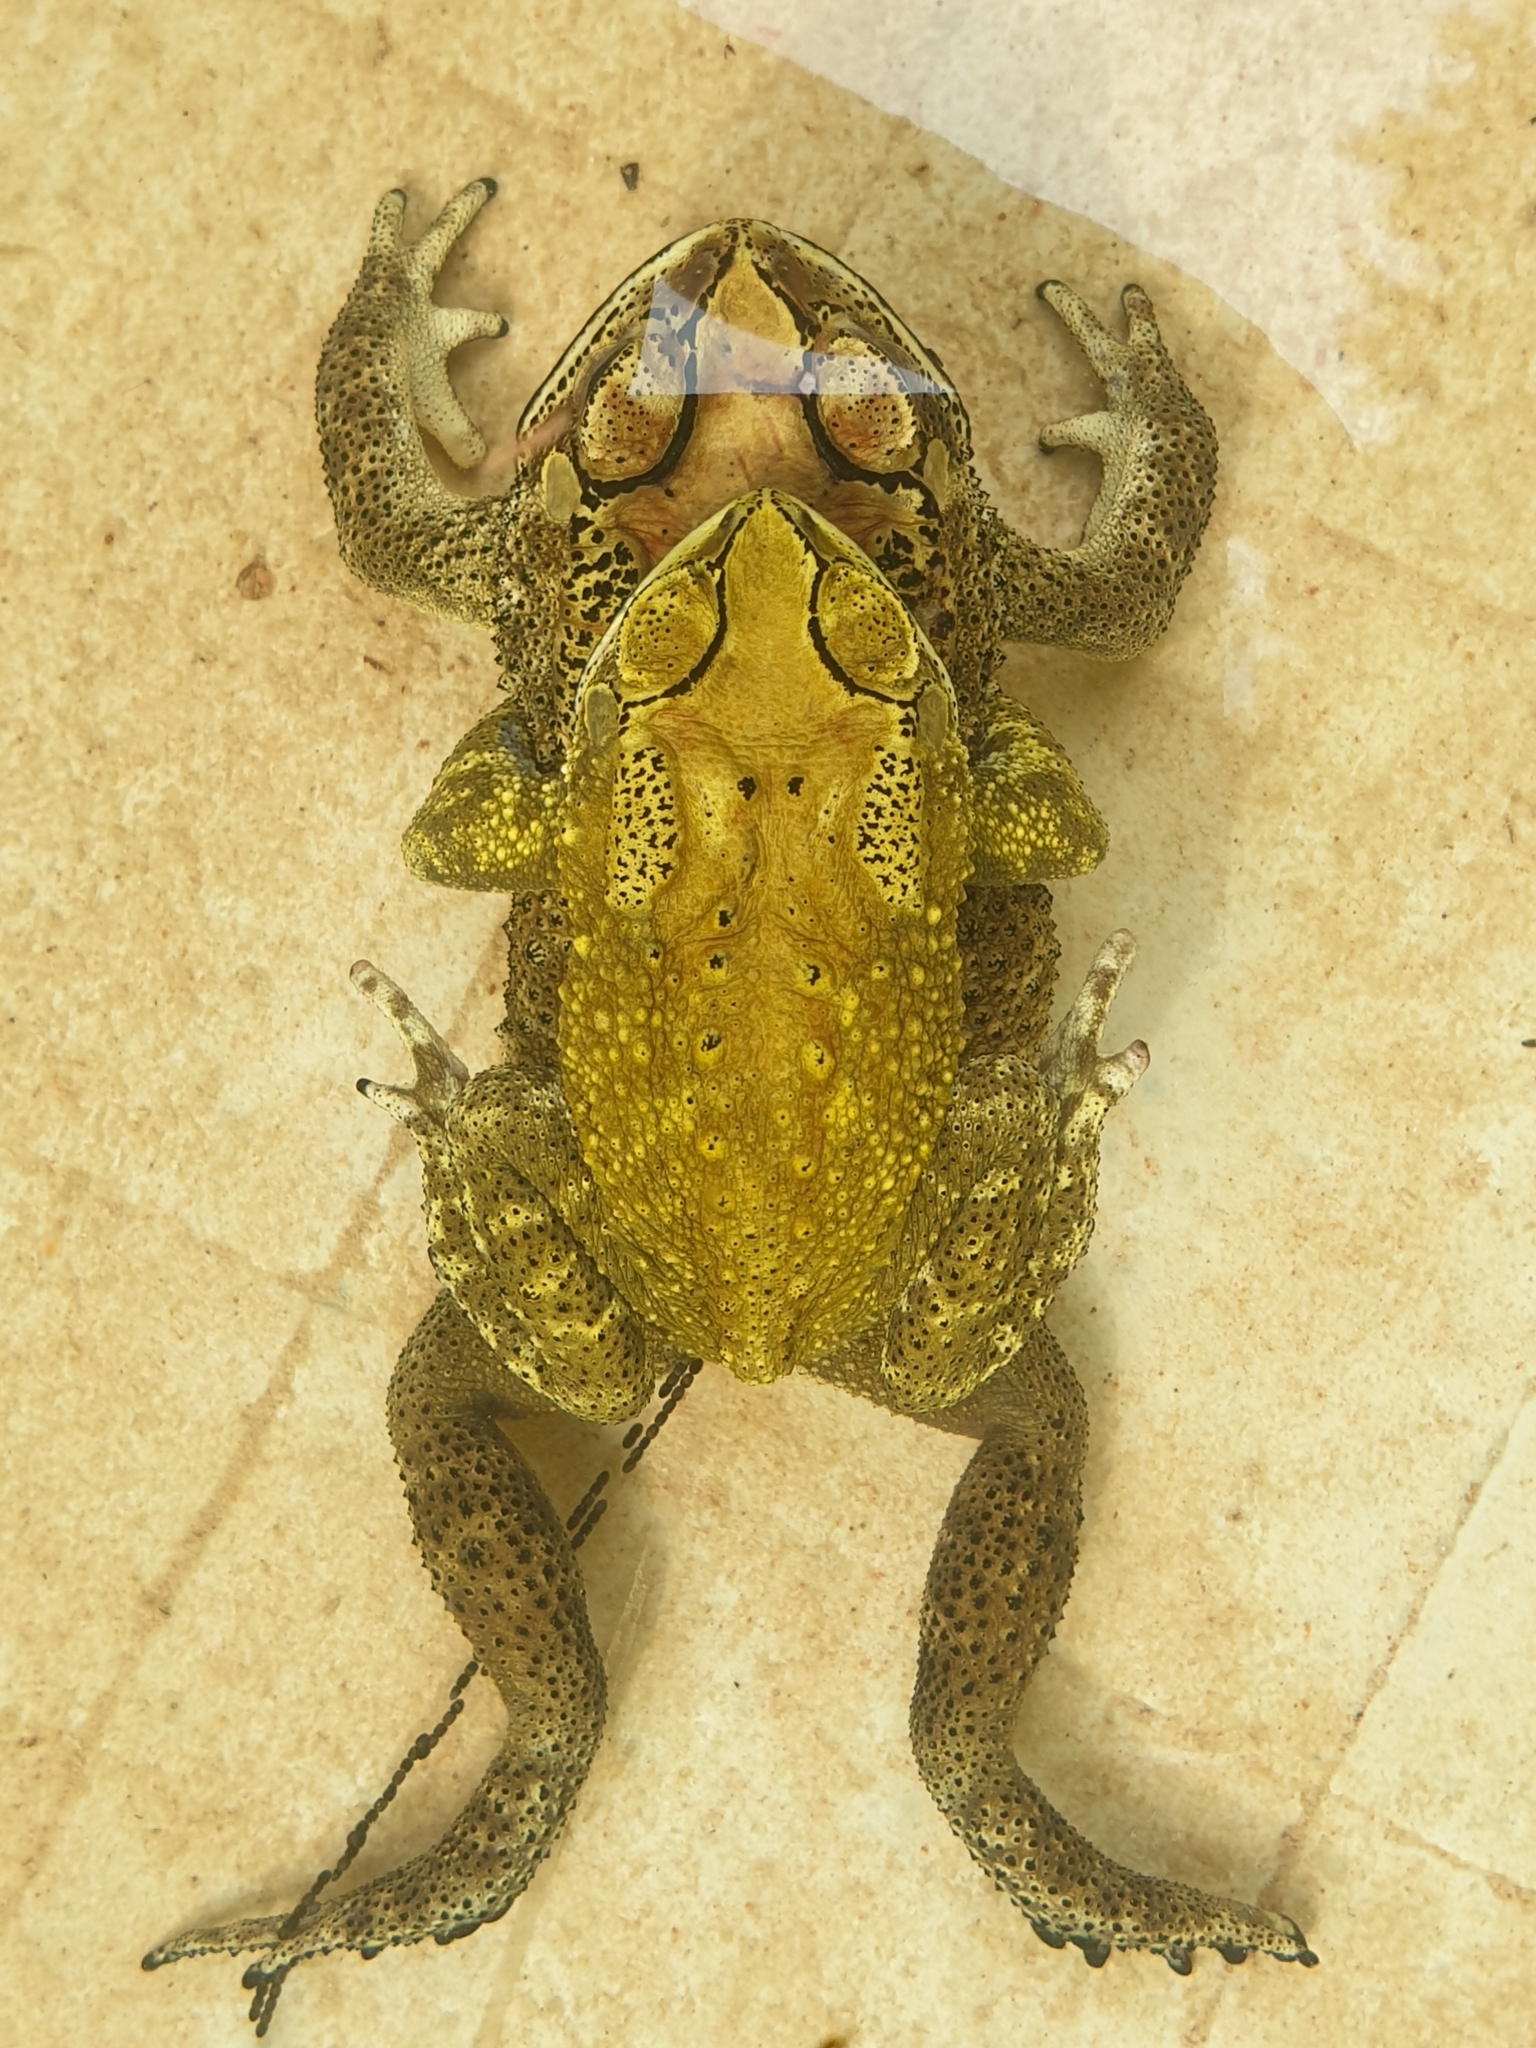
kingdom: Animalia
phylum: Chordata
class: Amphibia
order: Anura
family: Bufonidae
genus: Duttaphrynus
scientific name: Duttaphrynus melanostictus
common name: Common sunda toad
